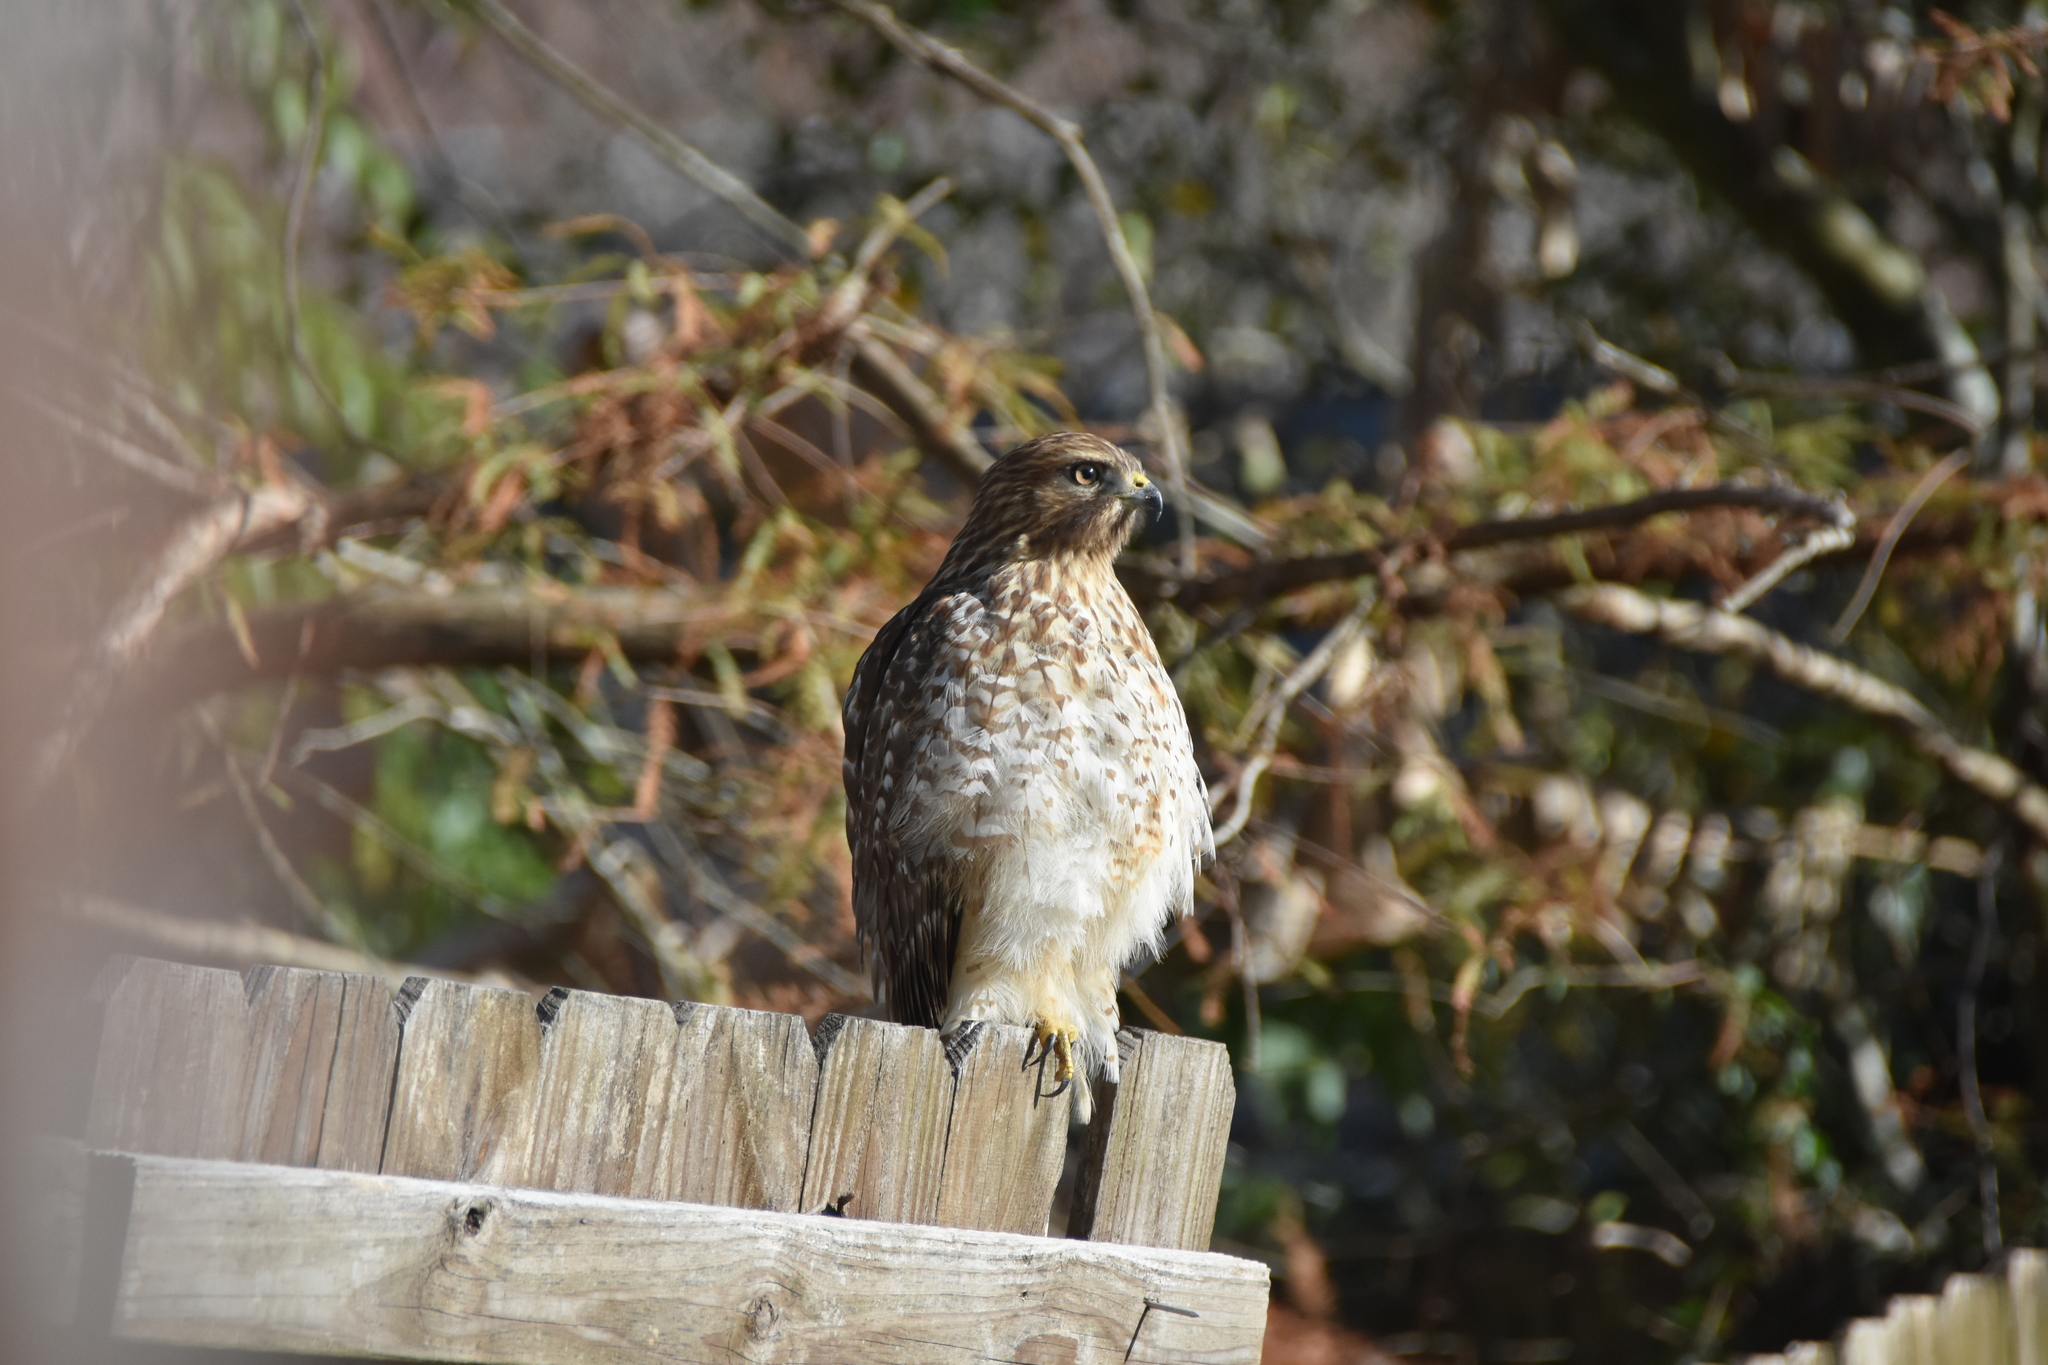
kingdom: Animalia
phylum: Chordata
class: Aves
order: Accipitriformes
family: Accipitridae
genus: Buteo
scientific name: Buteo lineatus
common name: Red-shouldered hawk
